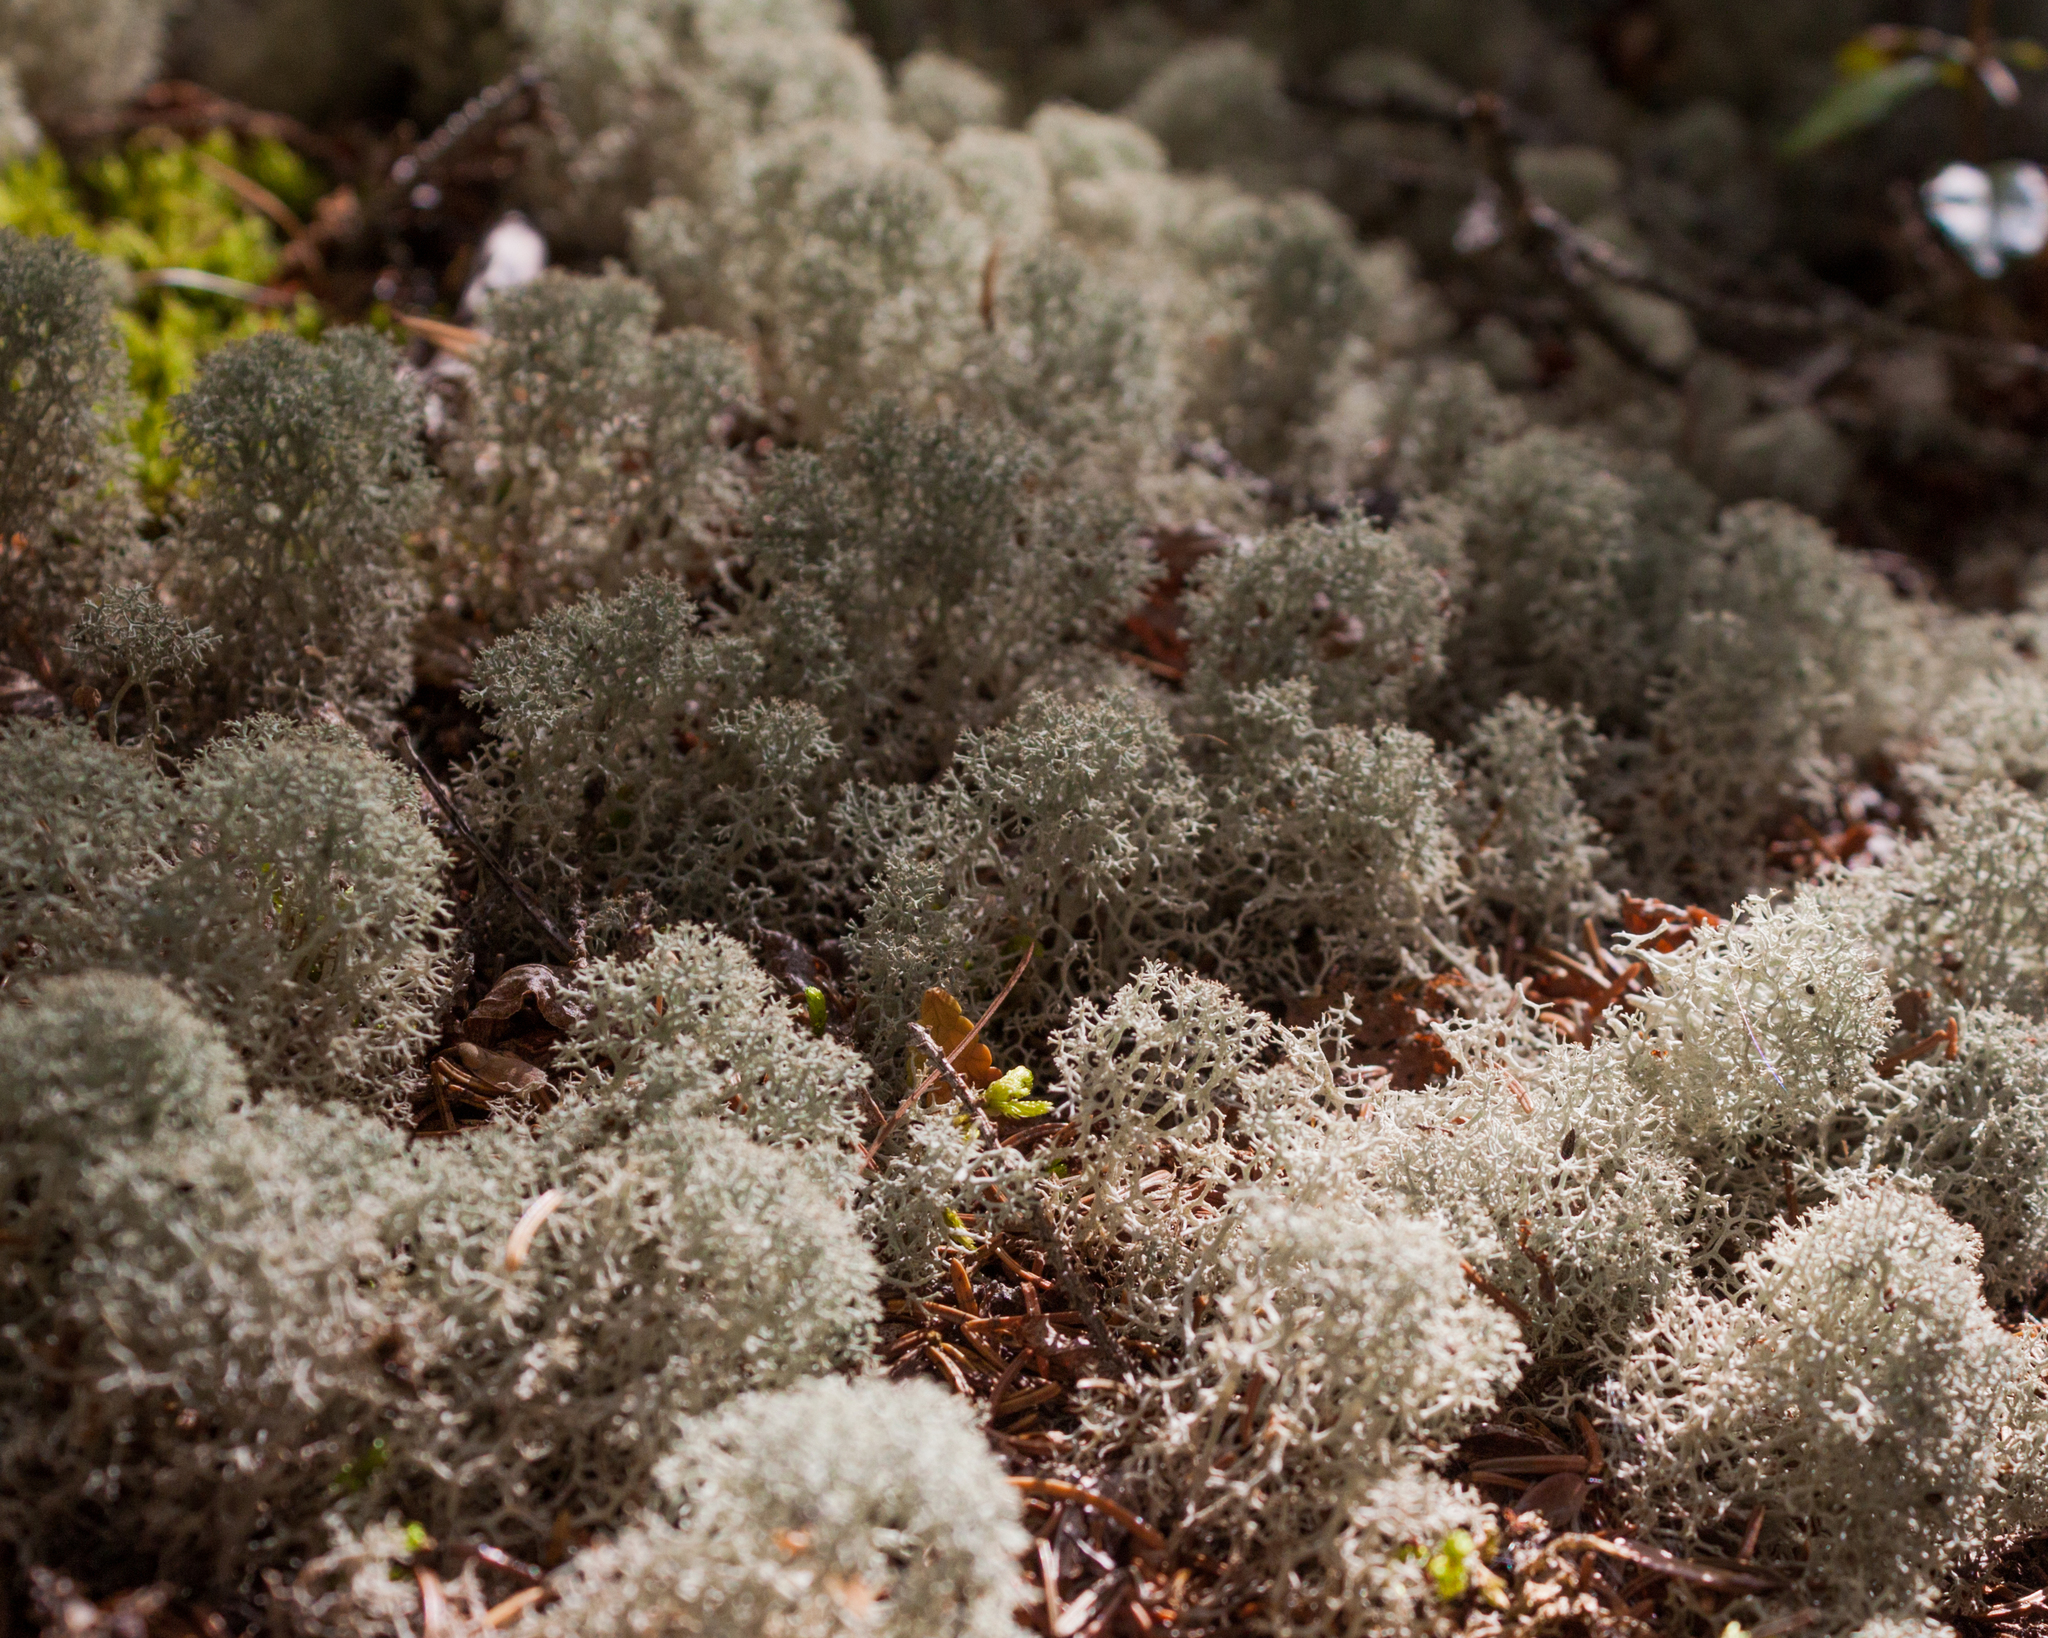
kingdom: Fungi
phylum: Ascomycota
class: Lecanoromycetes
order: Lecanorales
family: Cladoniaceae
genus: Cladonia
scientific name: Cladonia stellaris
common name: Star-tipped reindeer lichen
